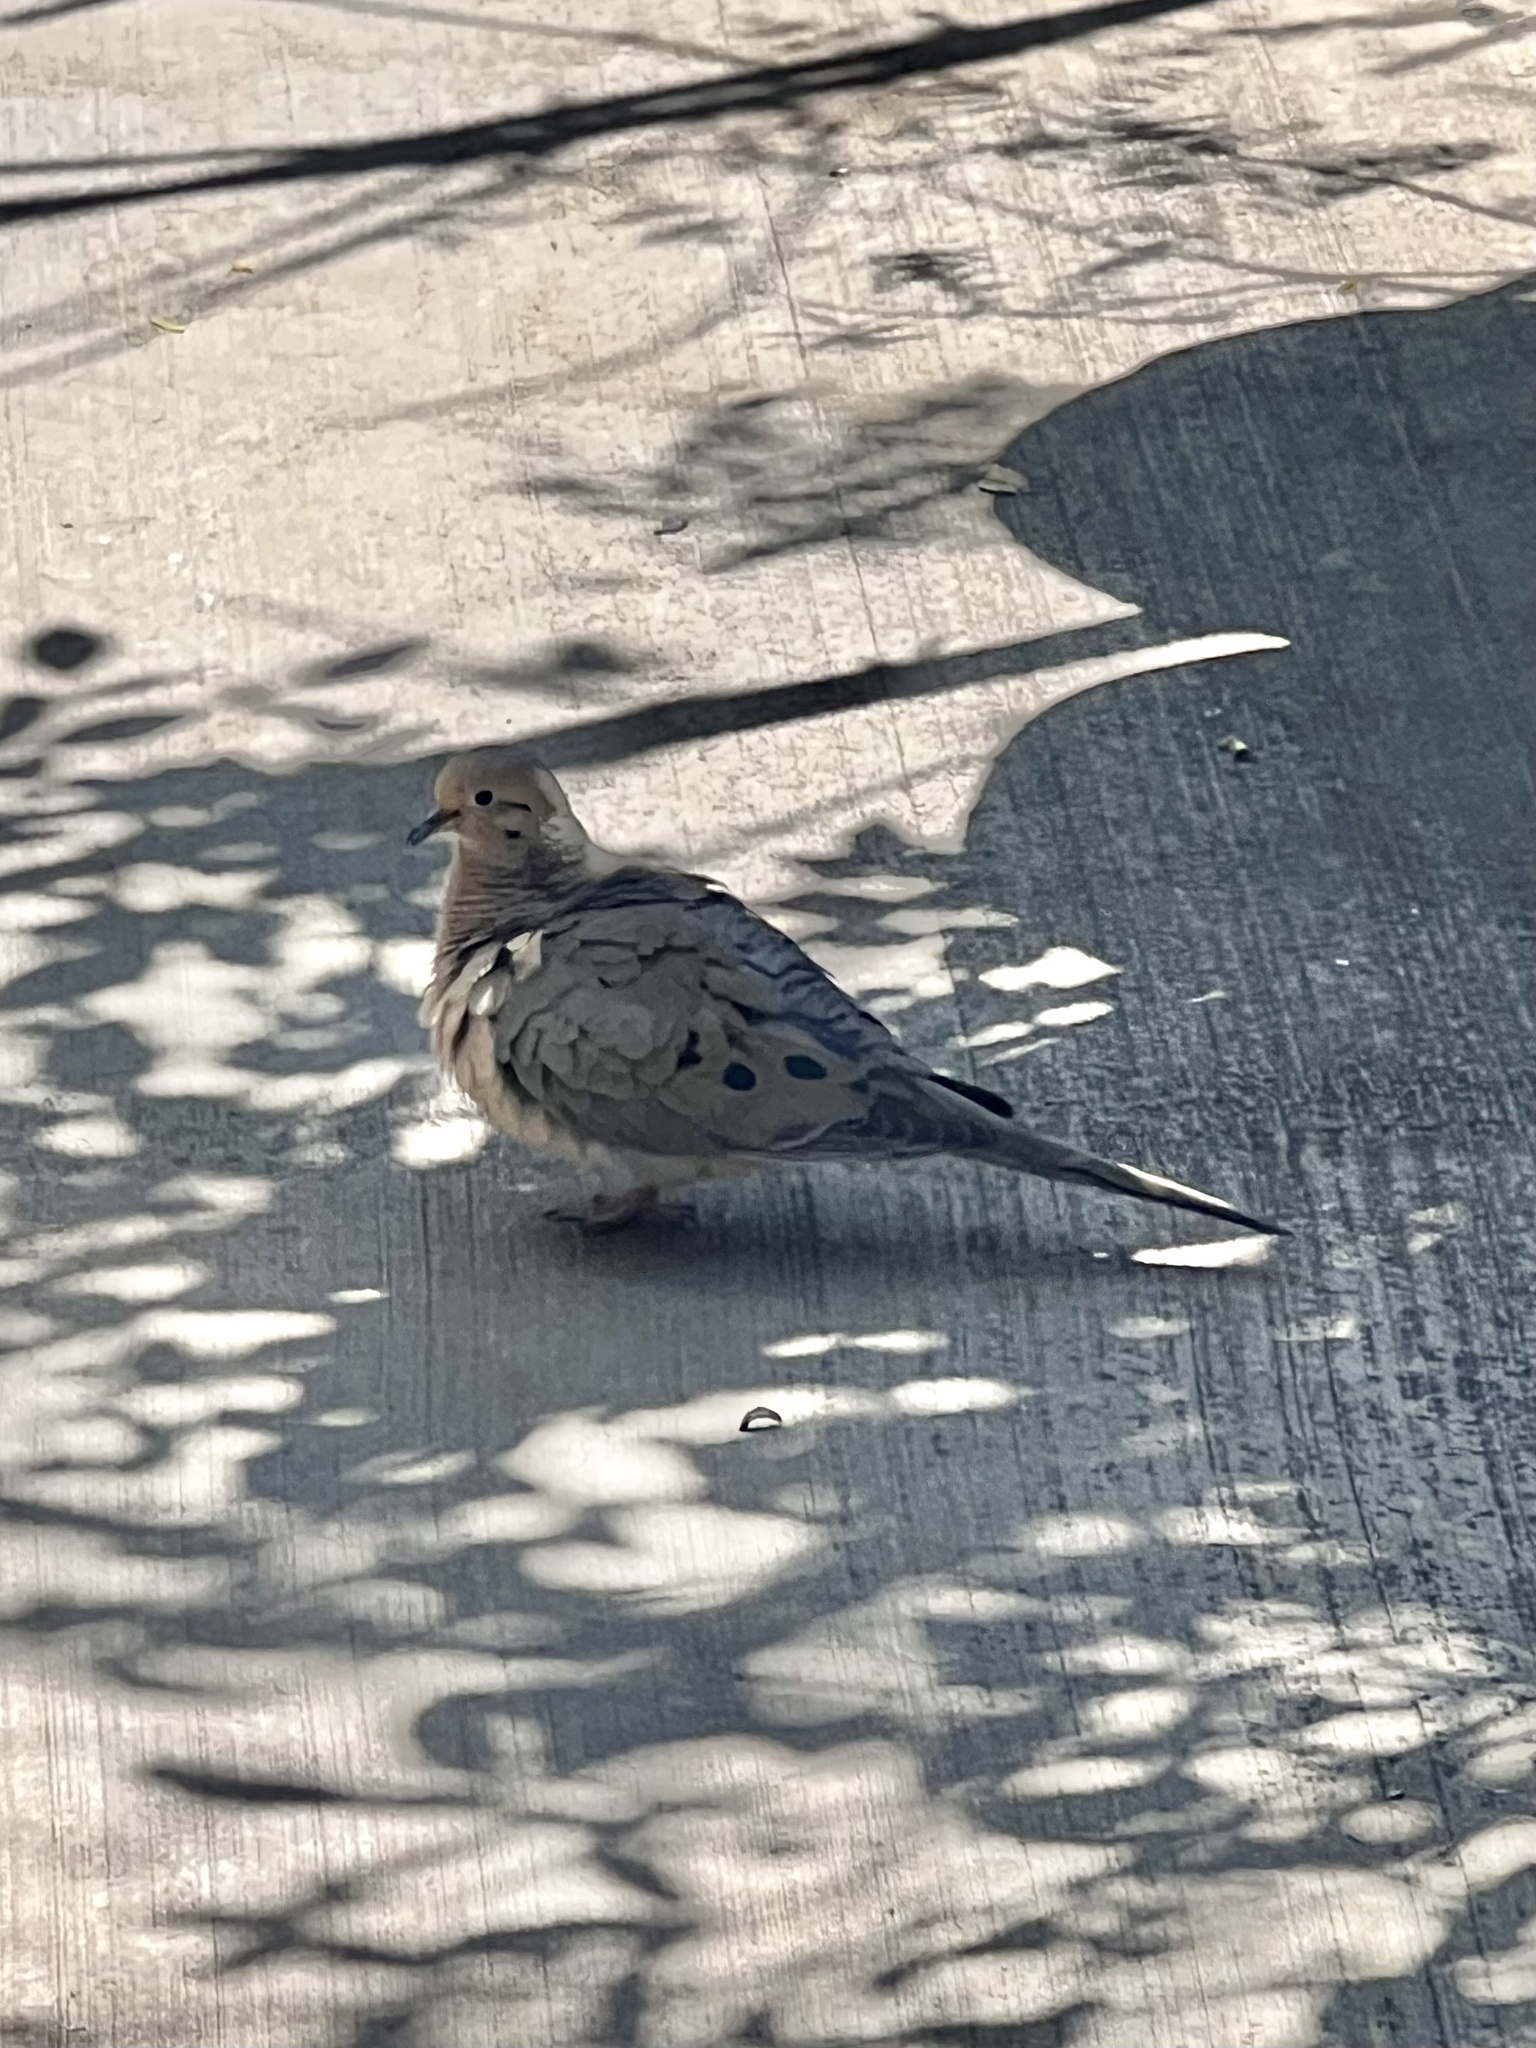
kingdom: Animalia
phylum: Chordata
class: Aves
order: Columbiformes
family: Columbidae
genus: Zenaida
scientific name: Zenaida macroura
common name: Mourning dove
